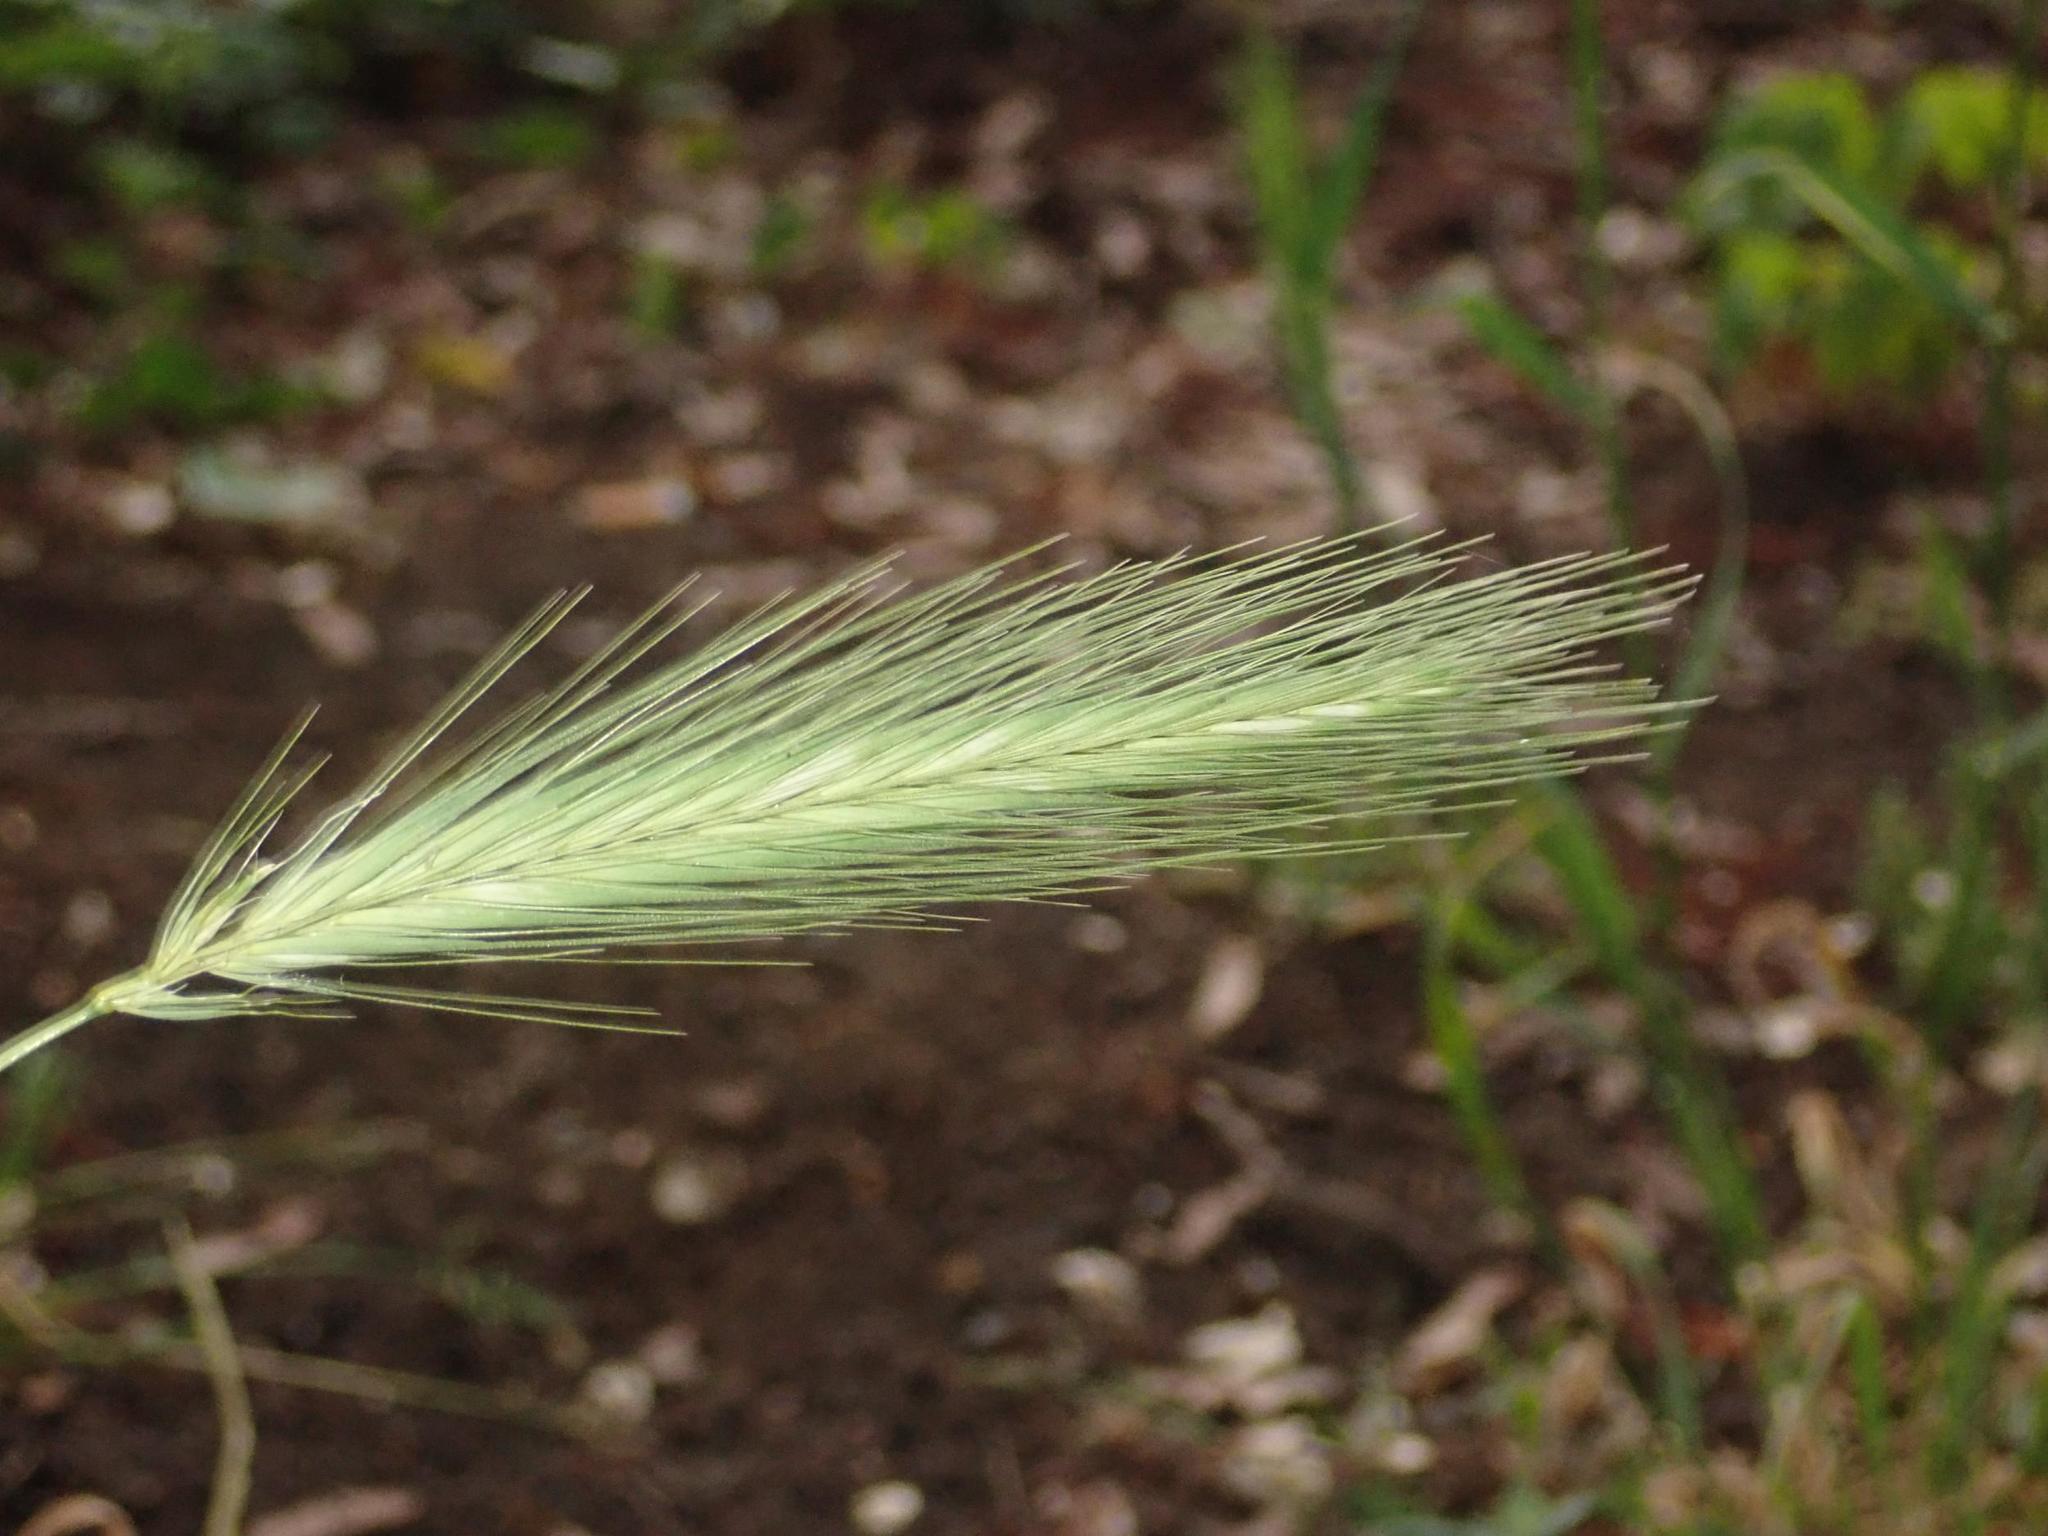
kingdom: Plantae
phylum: Tracheophyta
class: Liliopsida
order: Poales
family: Poaceae
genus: Hordeum
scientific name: Hordeum murinum
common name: Wall barley
